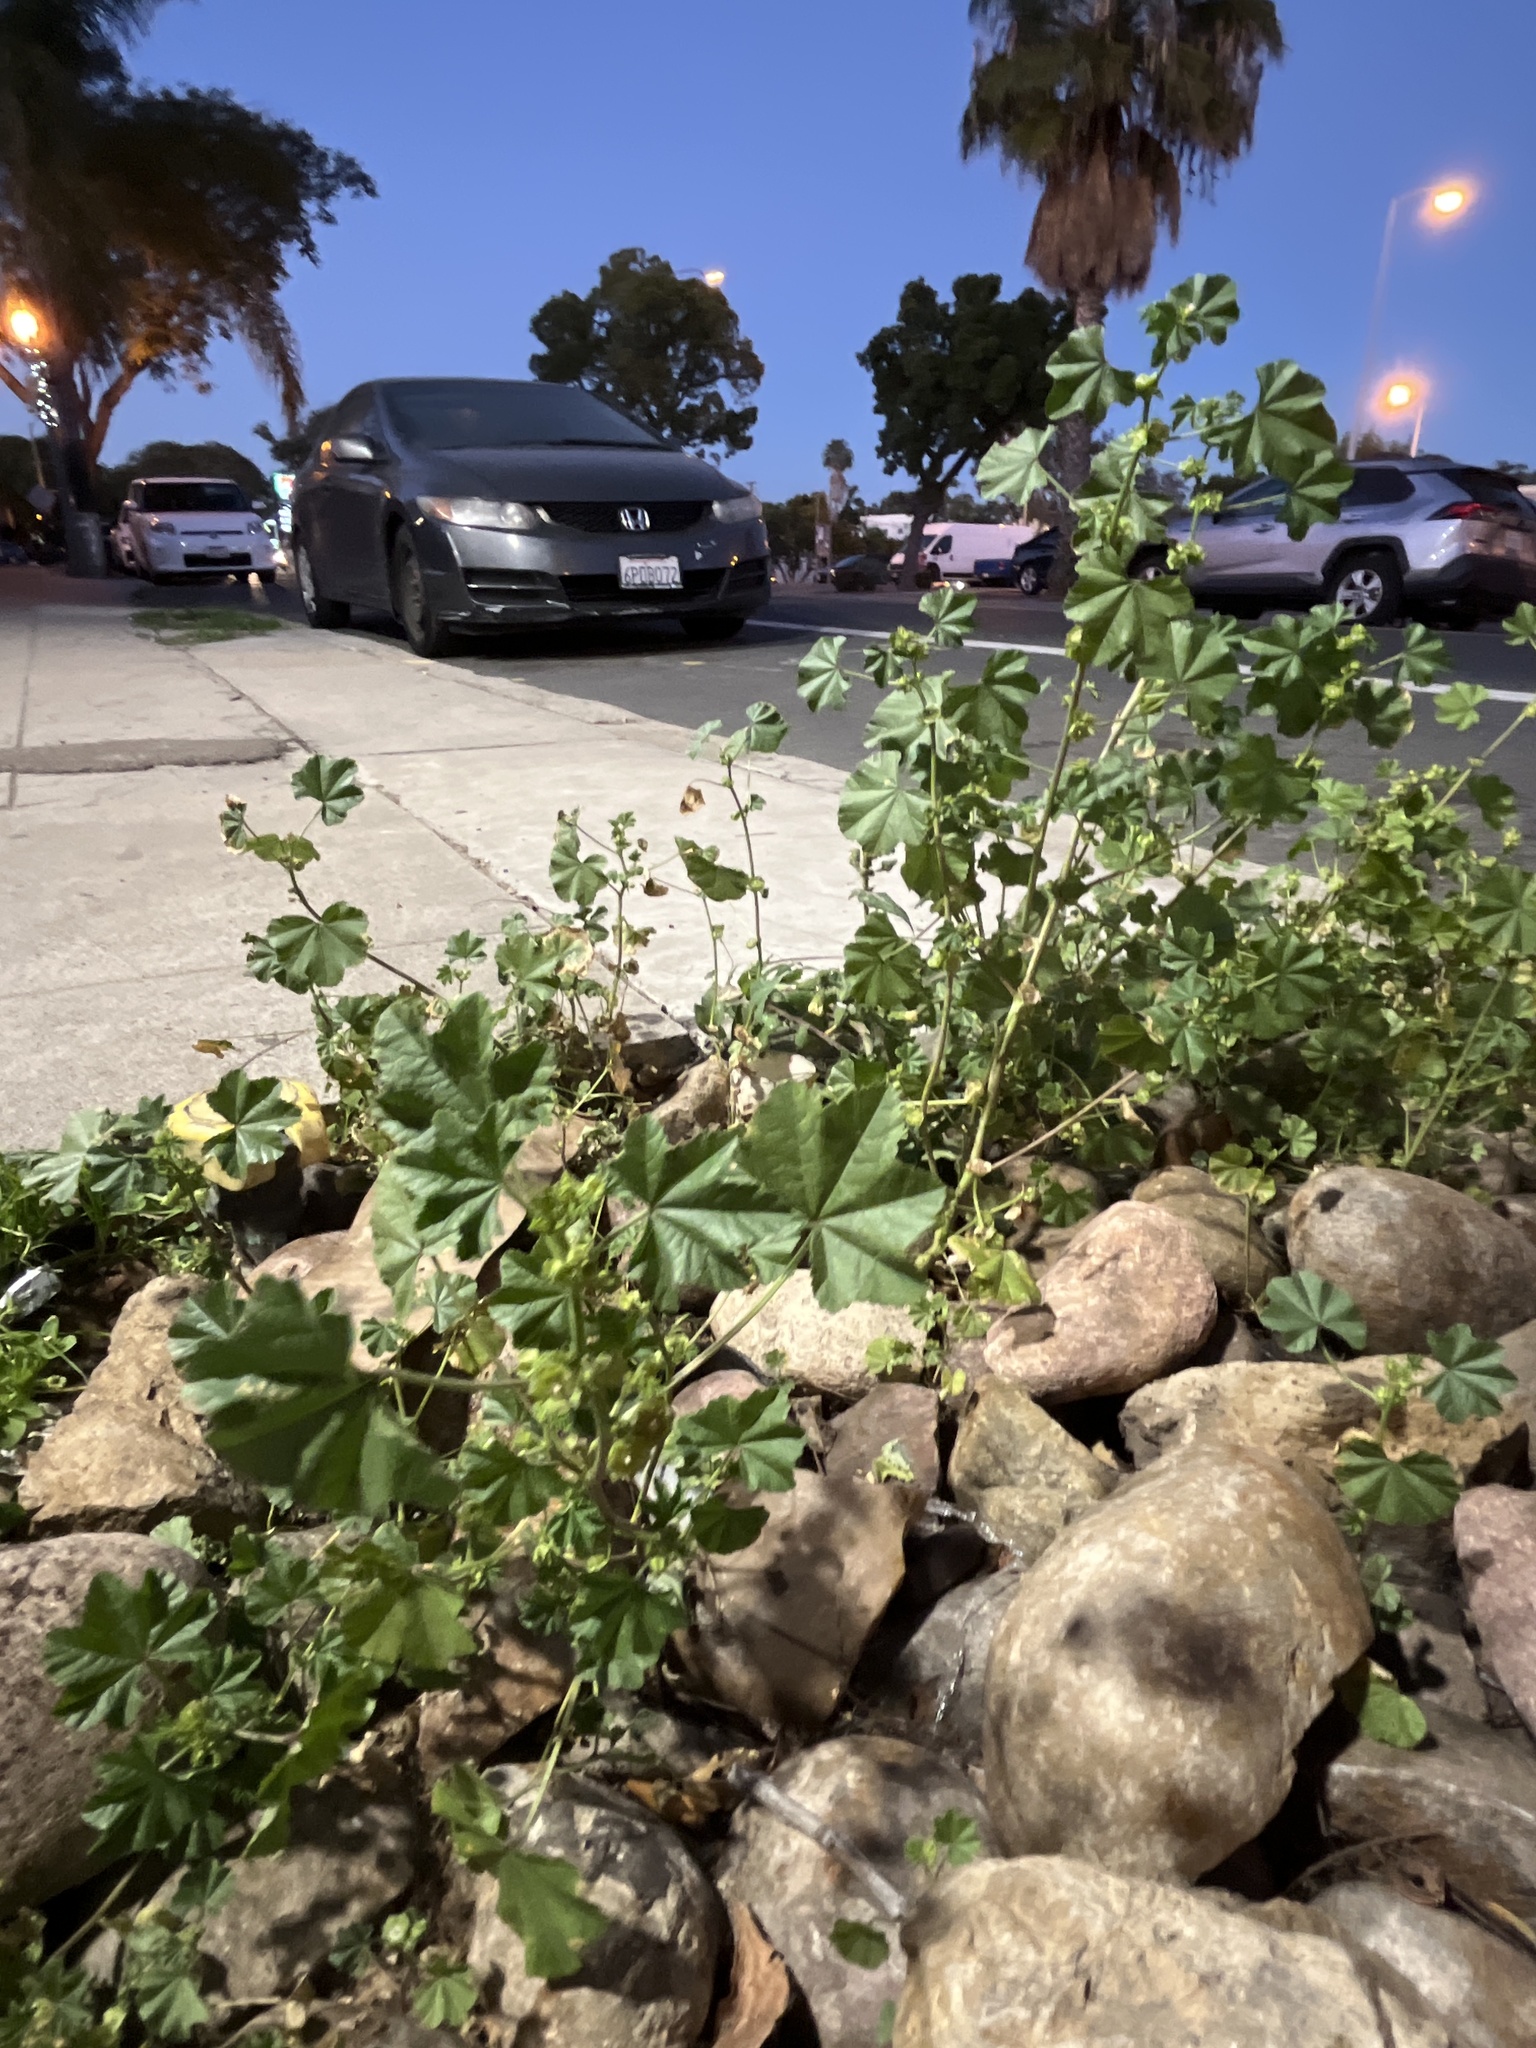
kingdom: Plantae
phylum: Tracheophyta
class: Magnoliopsida
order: Malvales
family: Malvaceae
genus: Malva
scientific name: Malva parviflora
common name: Least mallow
